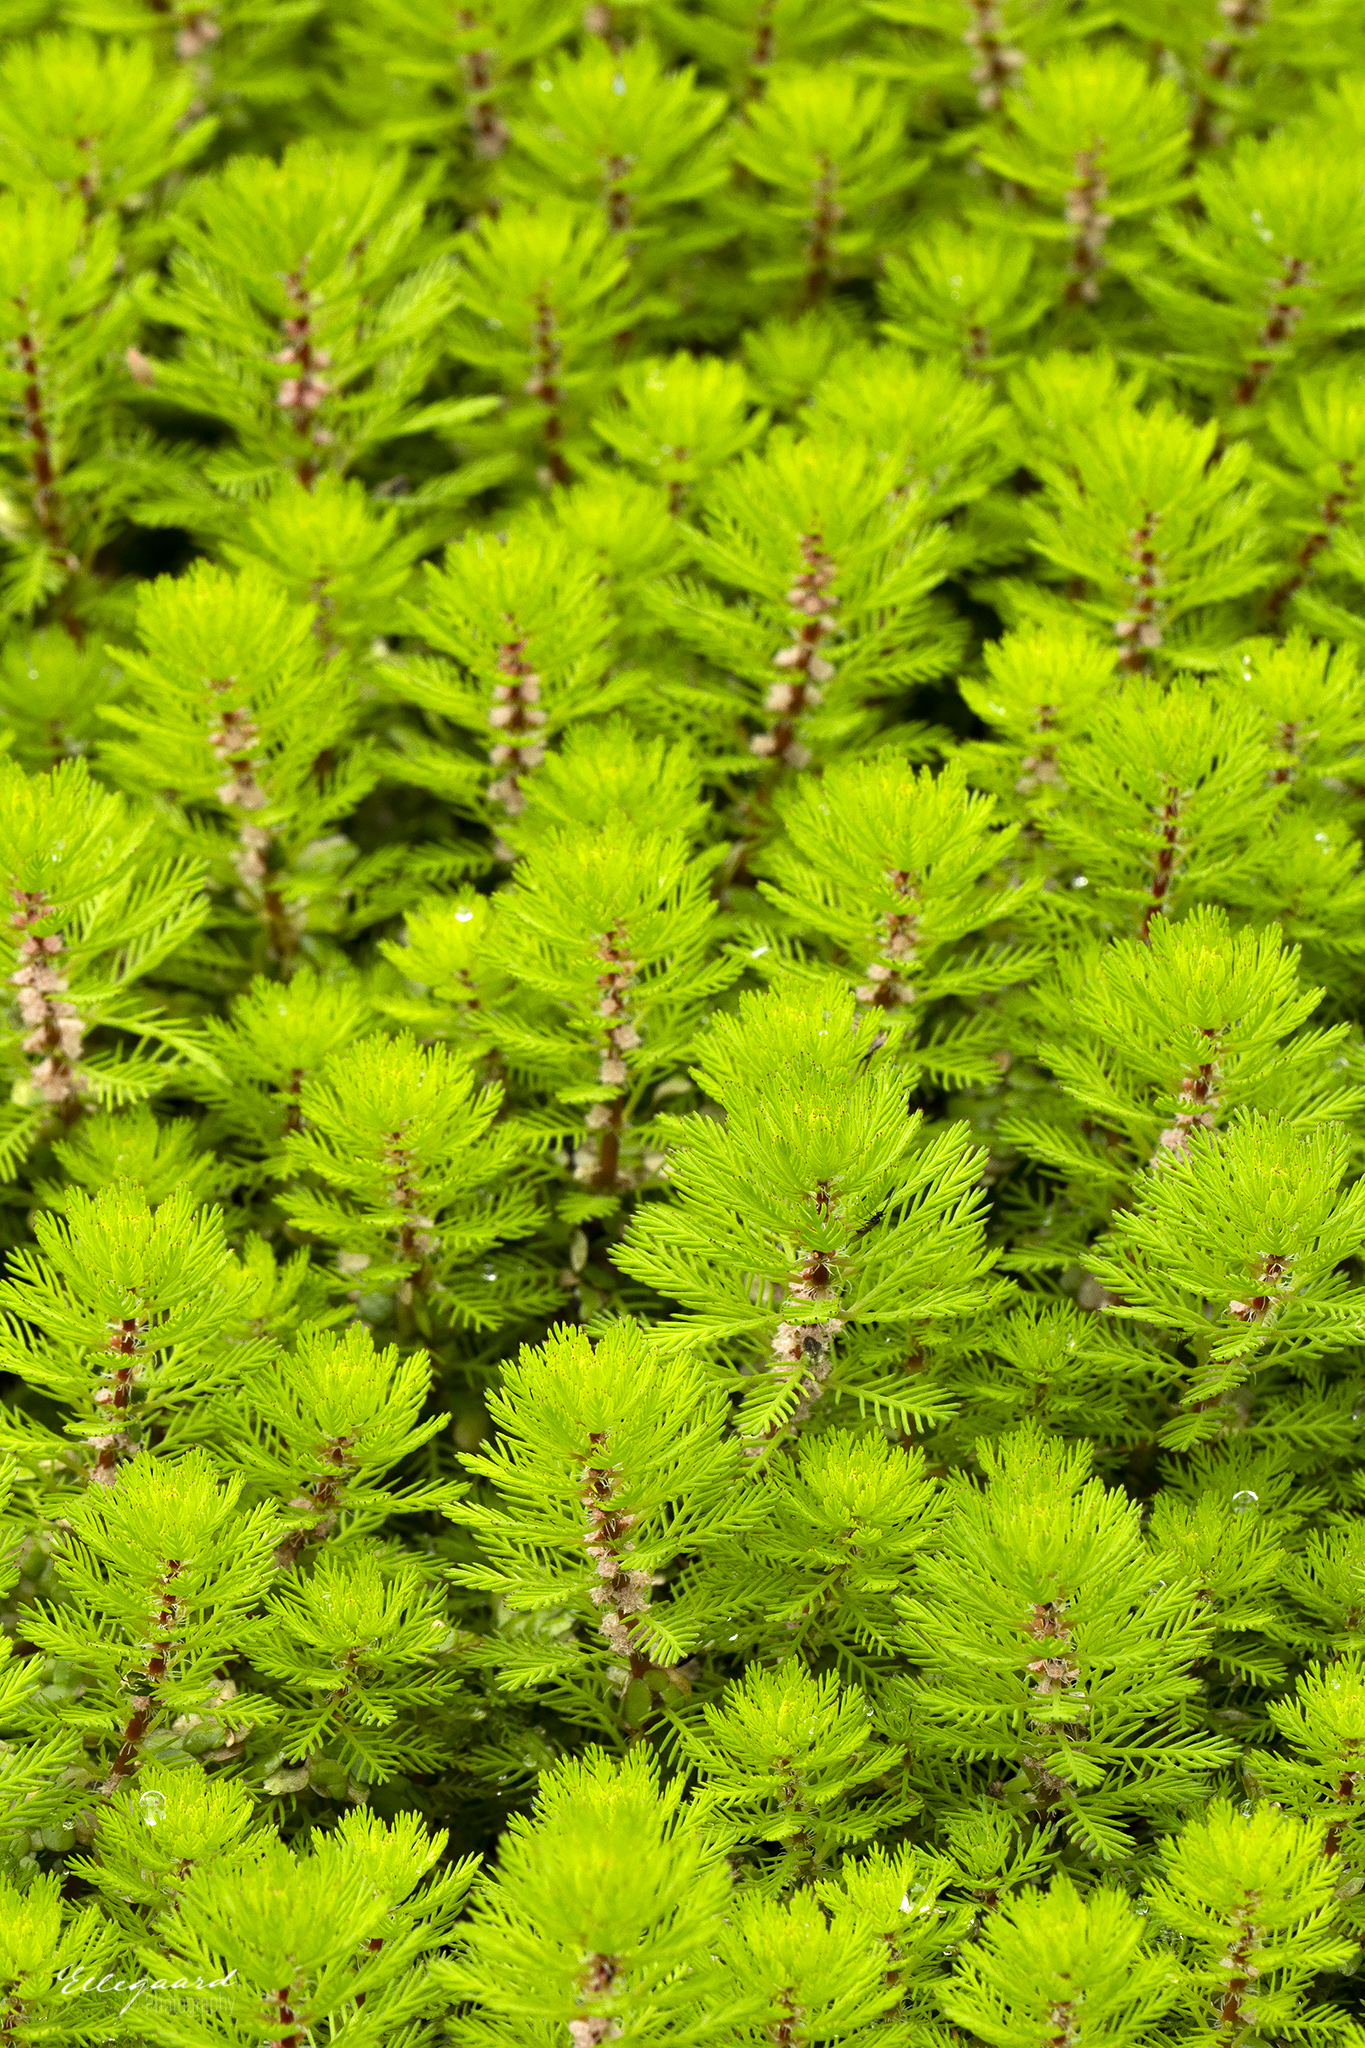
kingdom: Plantae
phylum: Tracheophyta
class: Magnoliopsida
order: Saxifragales
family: Haloragaceae
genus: Myriophyllum
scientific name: Myriophyllum rubricaule
